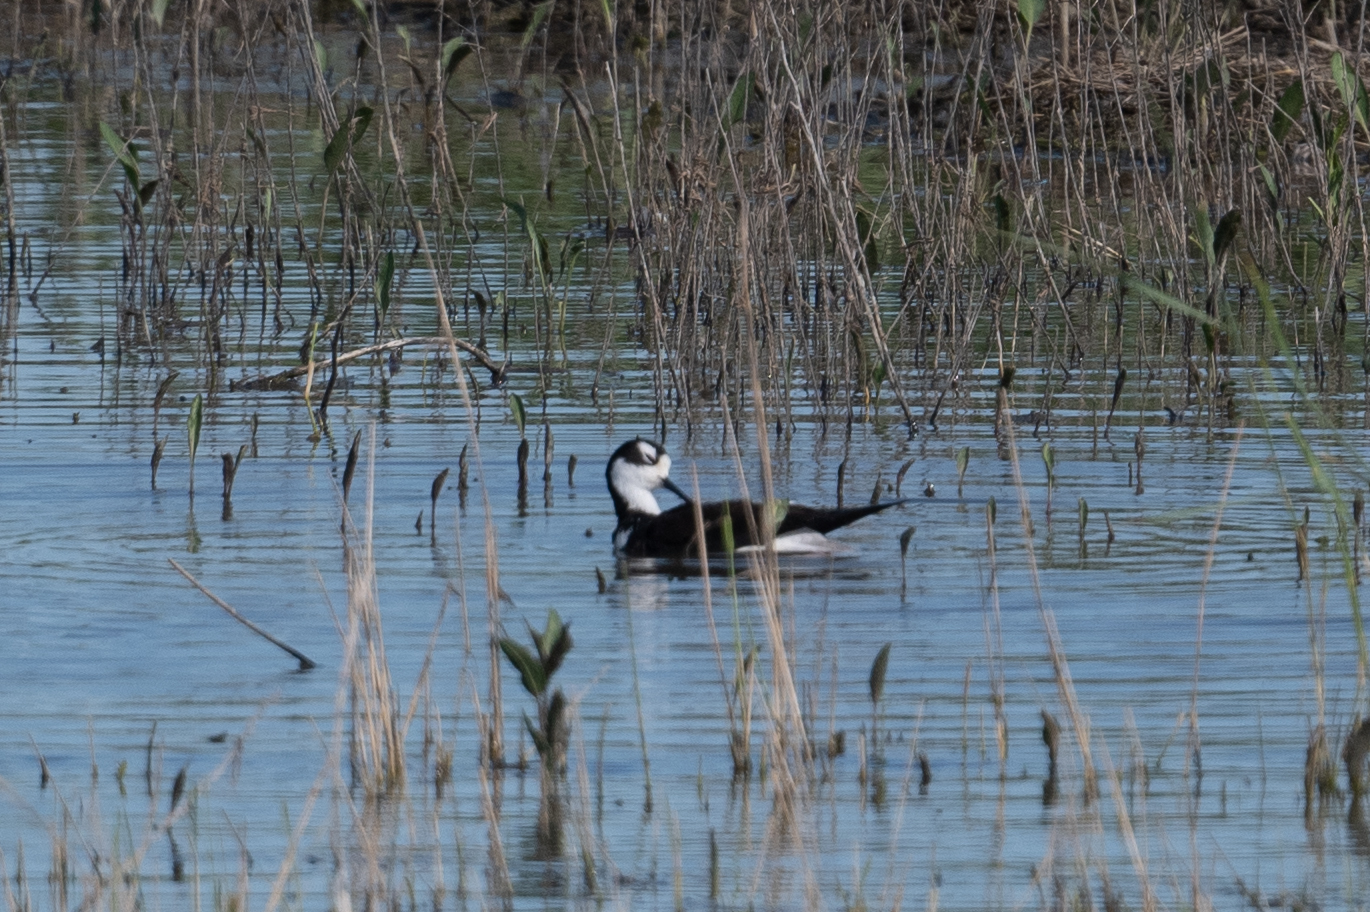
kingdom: Animalia
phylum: Chordata
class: Aves
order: Charadriiformes
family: Recurvirostridae
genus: Himantopus
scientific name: Himantopus mexicanus
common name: Black-necked stilt
